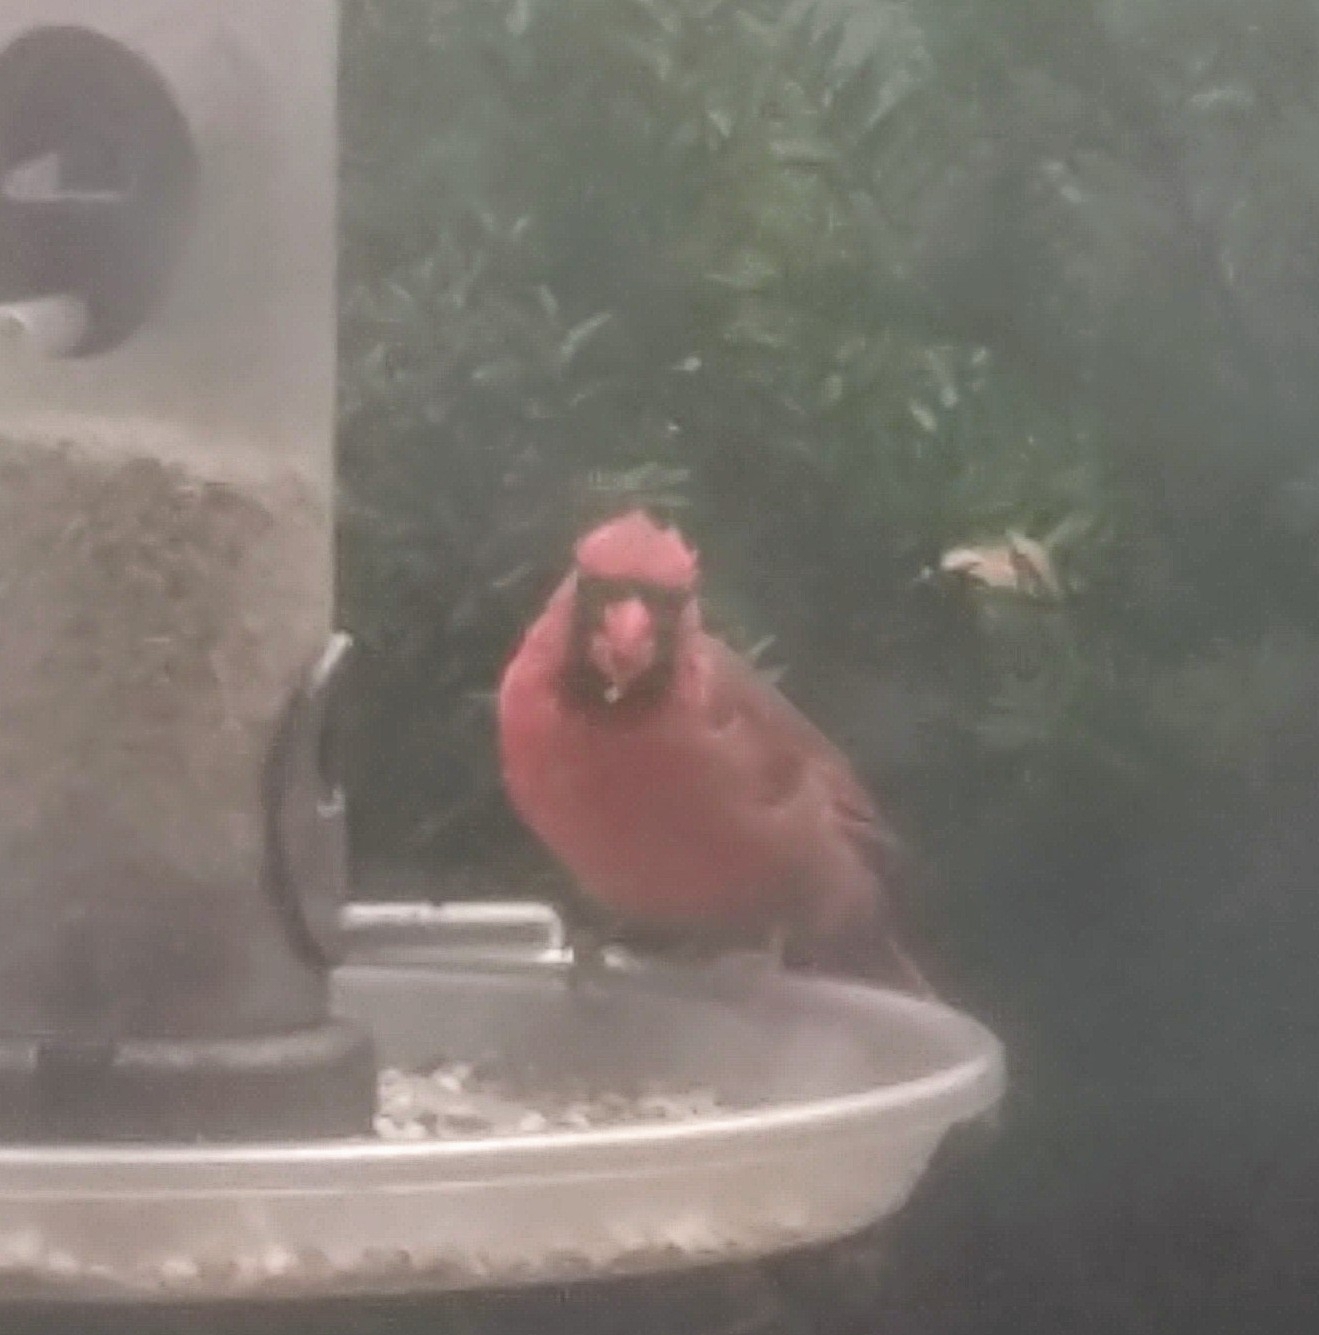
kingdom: Animalia
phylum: Chordata
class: Aves
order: Passeriformes
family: Cardinalidae
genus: Cardinalis
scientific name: Cardinalis cardinalis
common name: Northern cardinal
